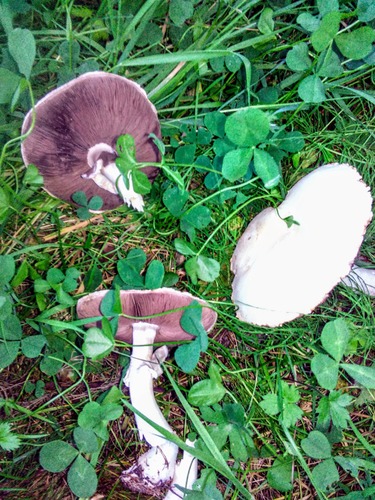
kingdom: Fungi
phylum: Basidiomycota
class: Agaricomycetes
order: Agaricales
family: Agaricaceae
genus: Agaricus
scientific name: Agaricus sylvicola
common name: Wood mushroom
